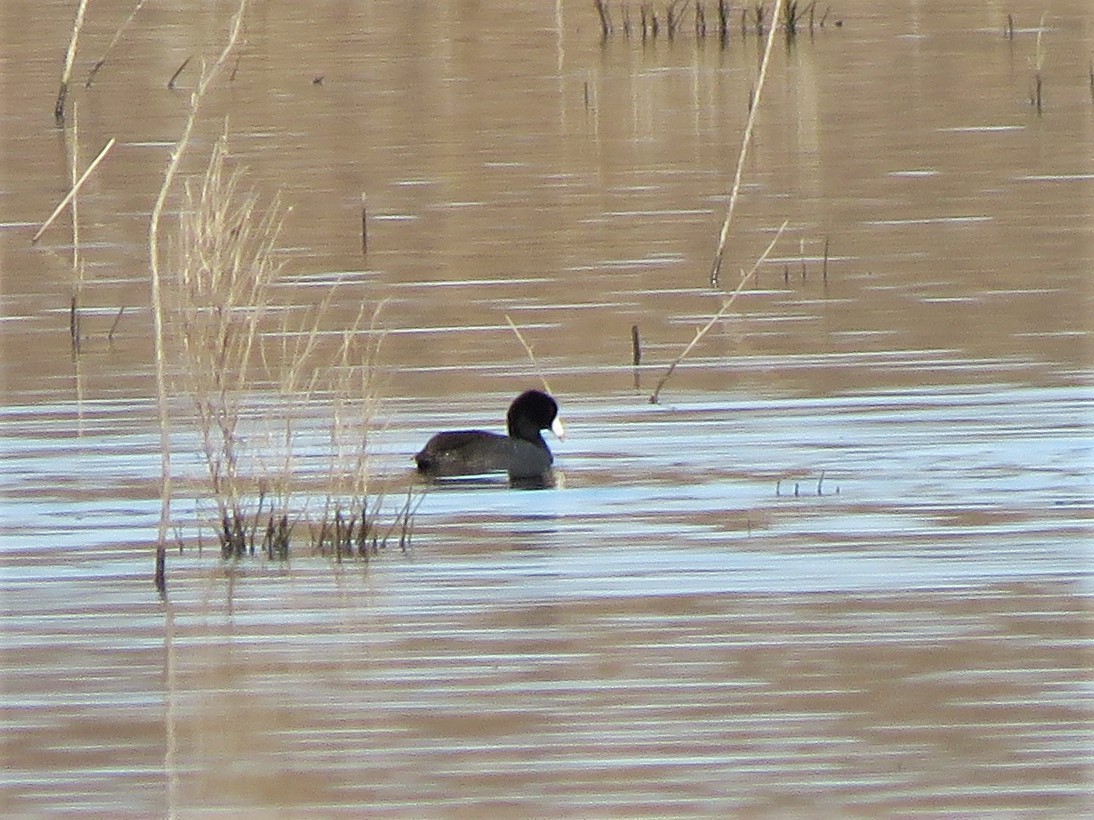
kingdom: Animalia
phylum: Chordata
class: Aves
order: Gruiformes
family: Rallidae
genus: Fulica
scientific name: Fulica americana
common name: American coot
